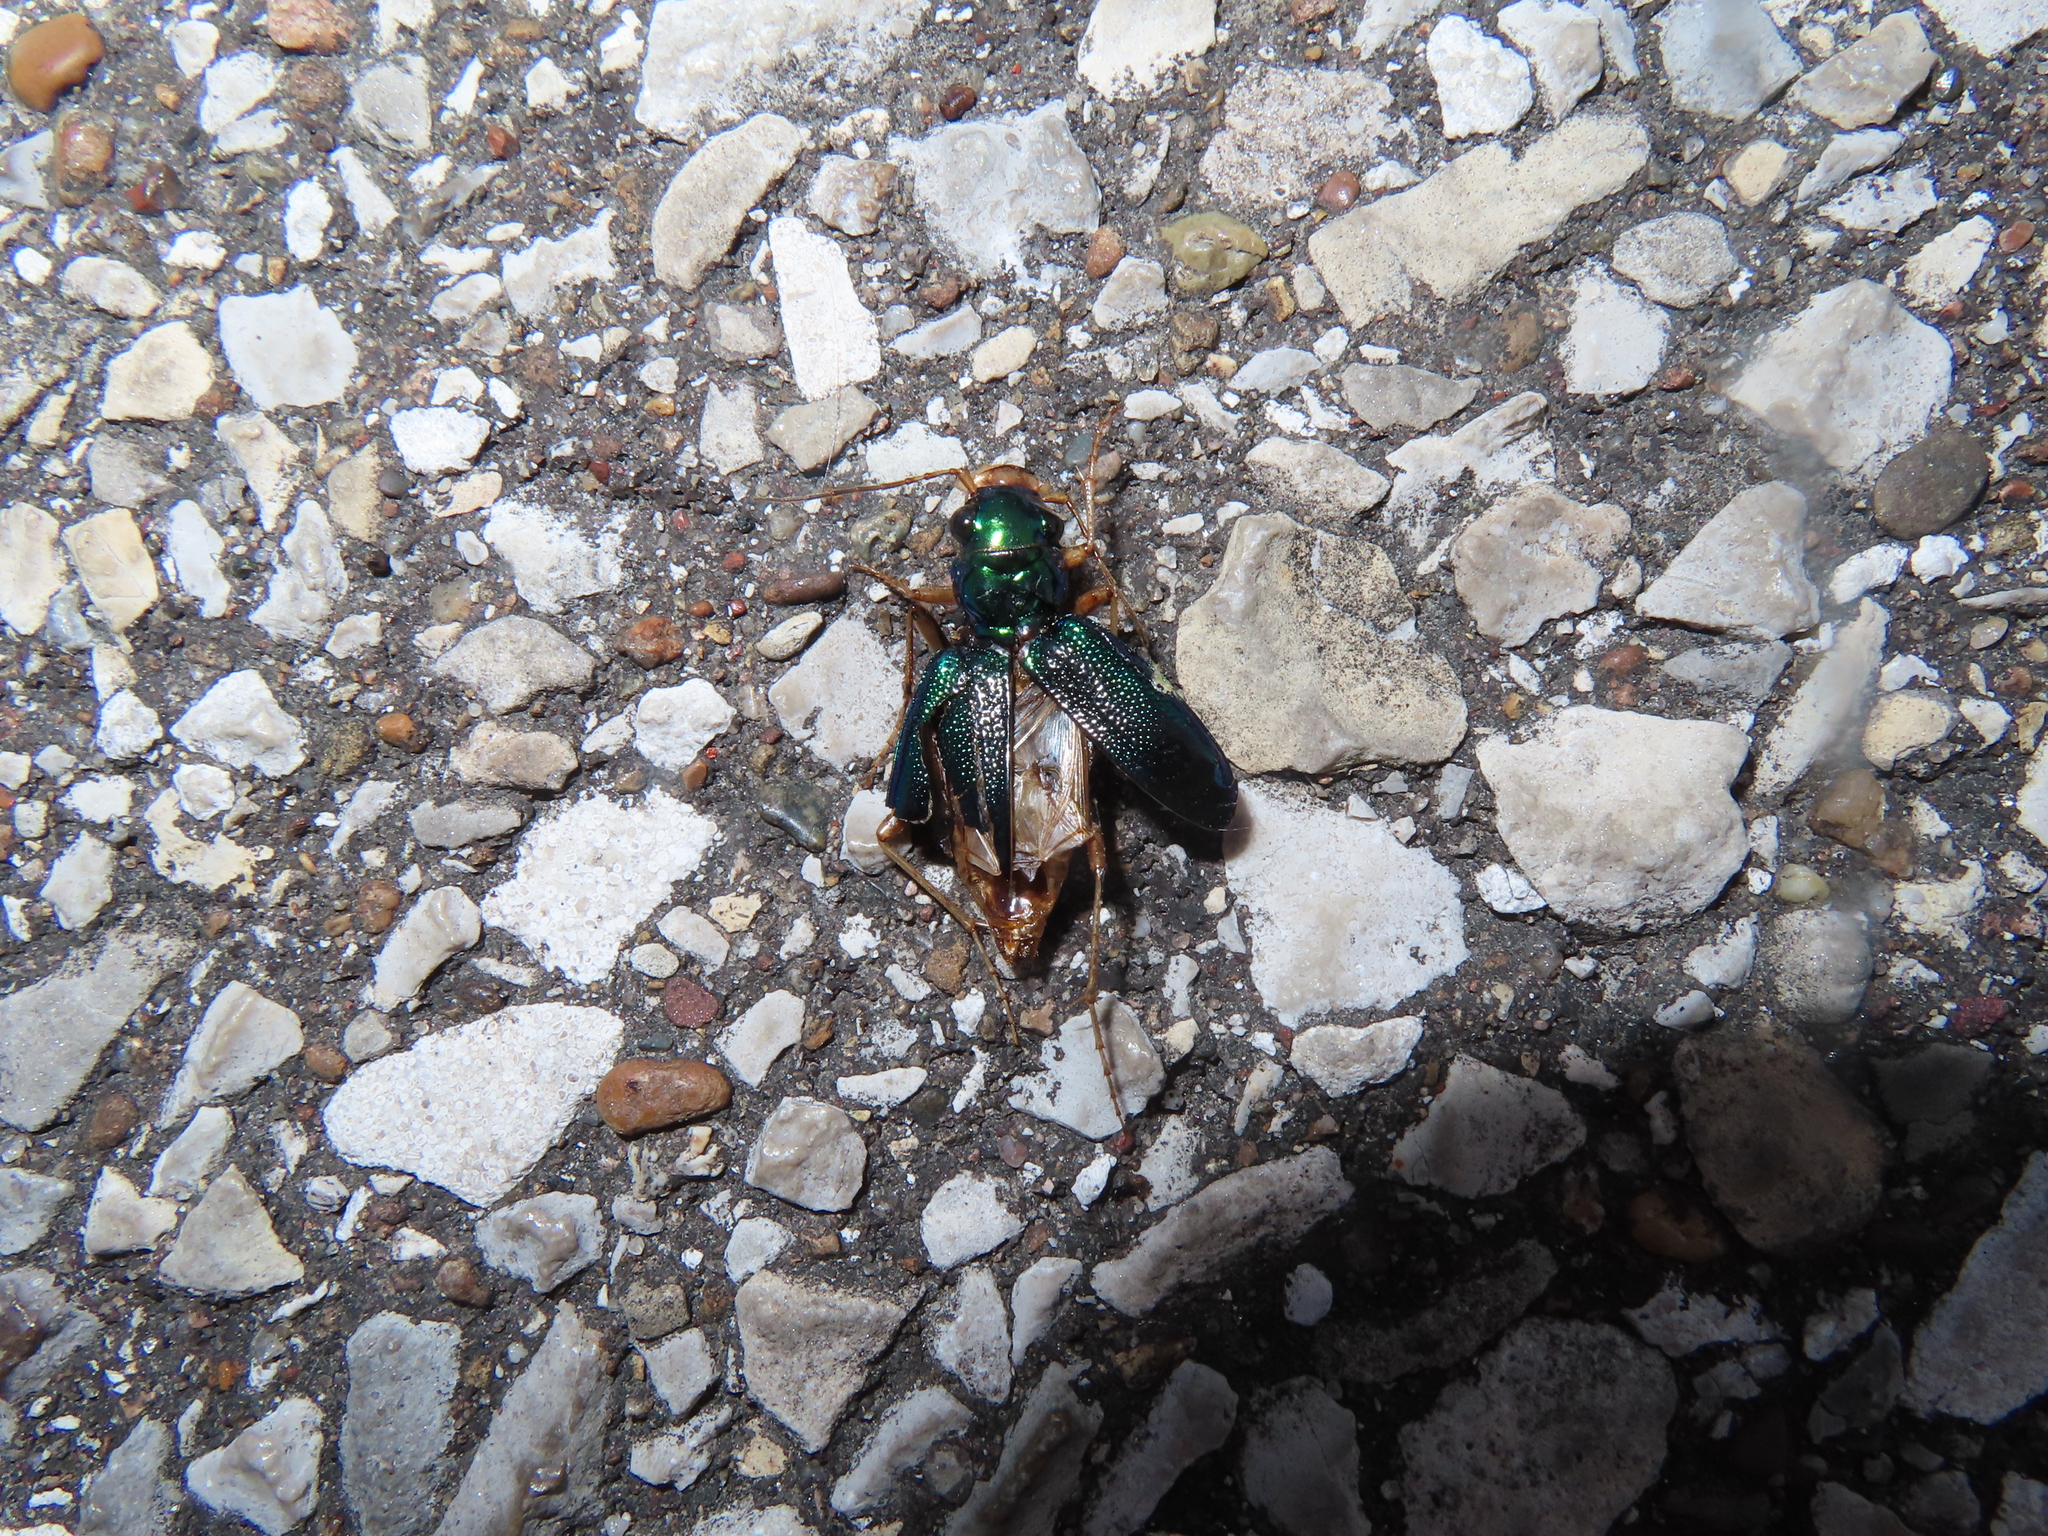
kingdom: Animalia
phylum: Arthropoda
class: Insecta
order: Coleoptera
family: Carabidae
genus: Tetracha
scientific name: Tetracha virginica
